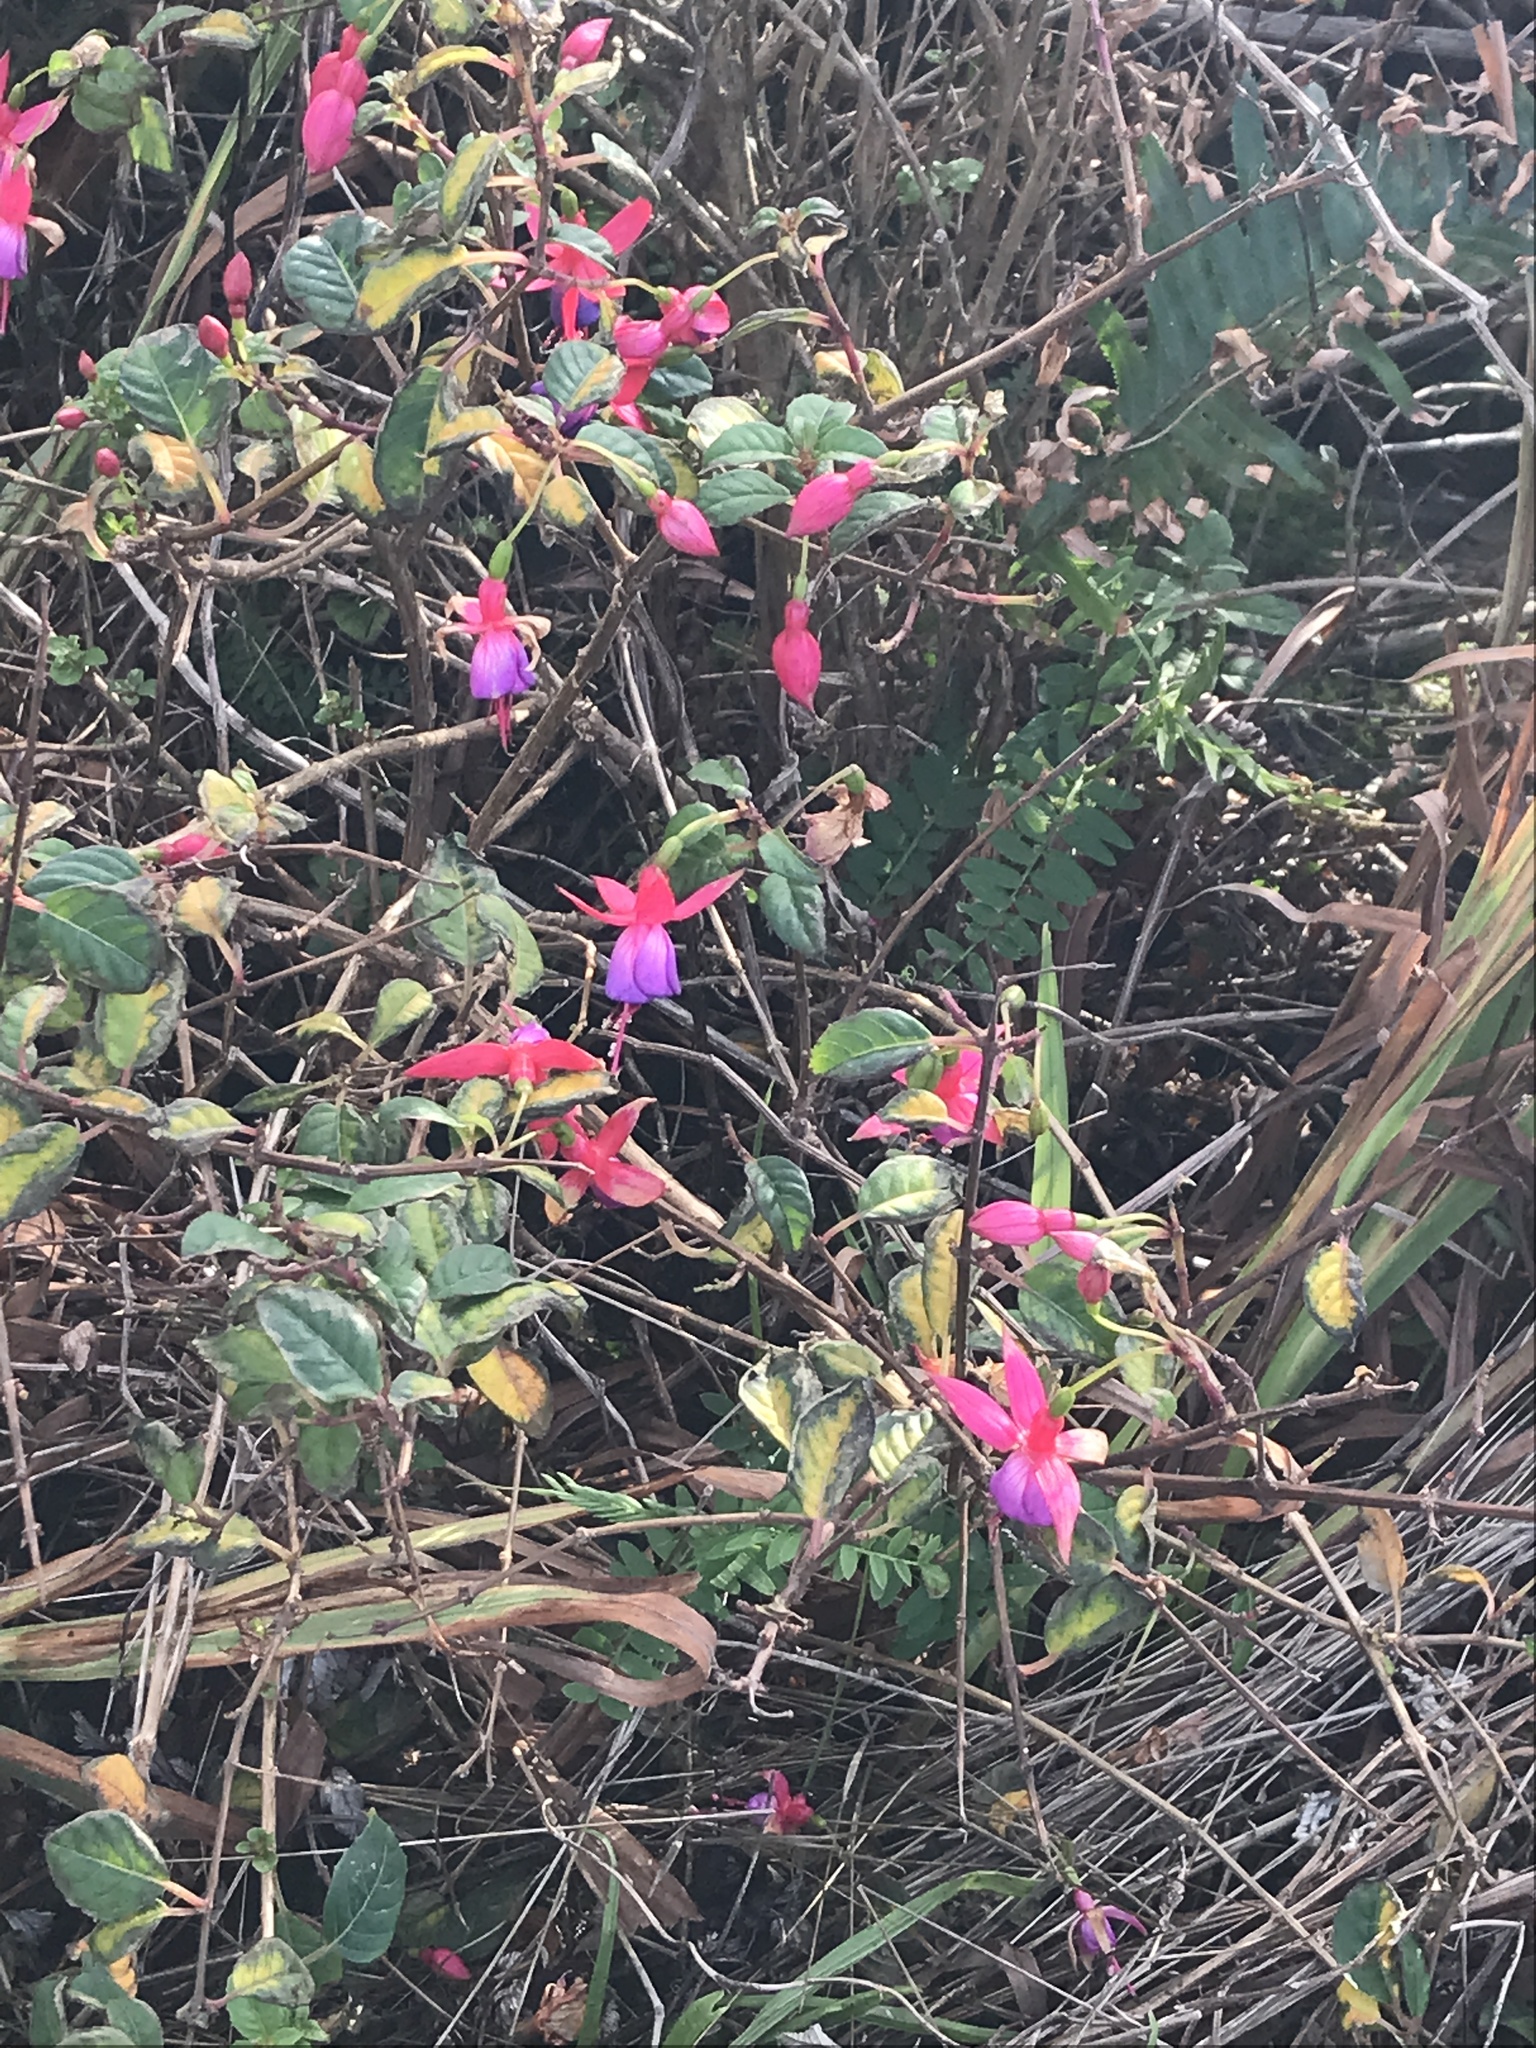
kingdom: Plantae
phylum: Tracheophyta
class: Magnoliopsida
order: Myrtales
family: Onagraceae
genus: Fuchsia
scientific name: Fuchsia hybrida
